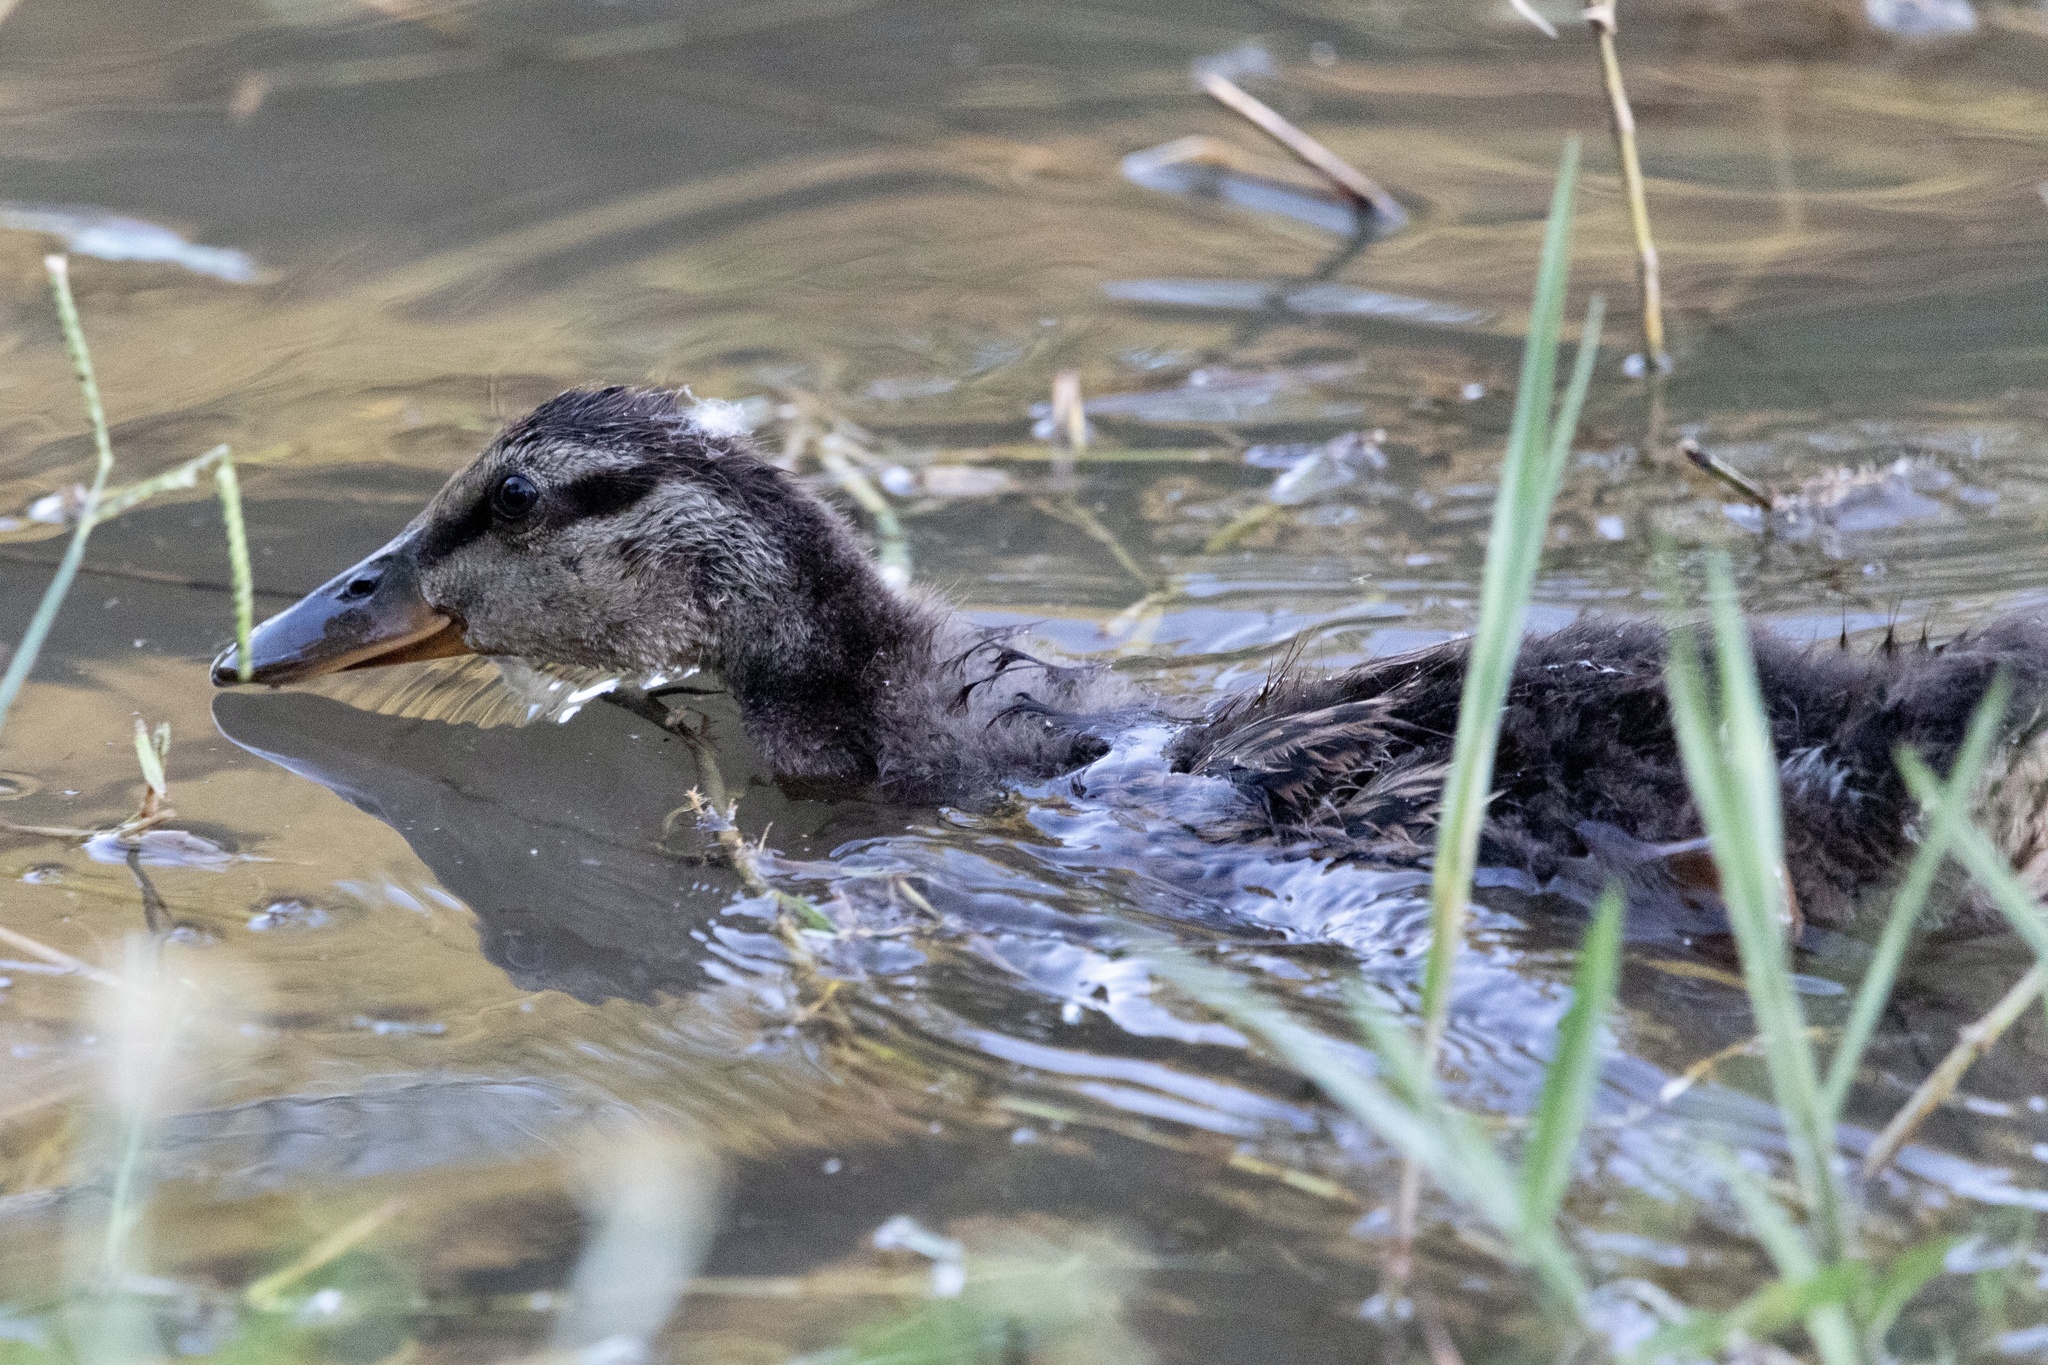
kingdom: Animalia
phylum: Chordata
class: Aves
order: Anseriformes
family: Anatidae
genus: Anas
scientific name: Anas platyrhynchos
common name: Mallard
